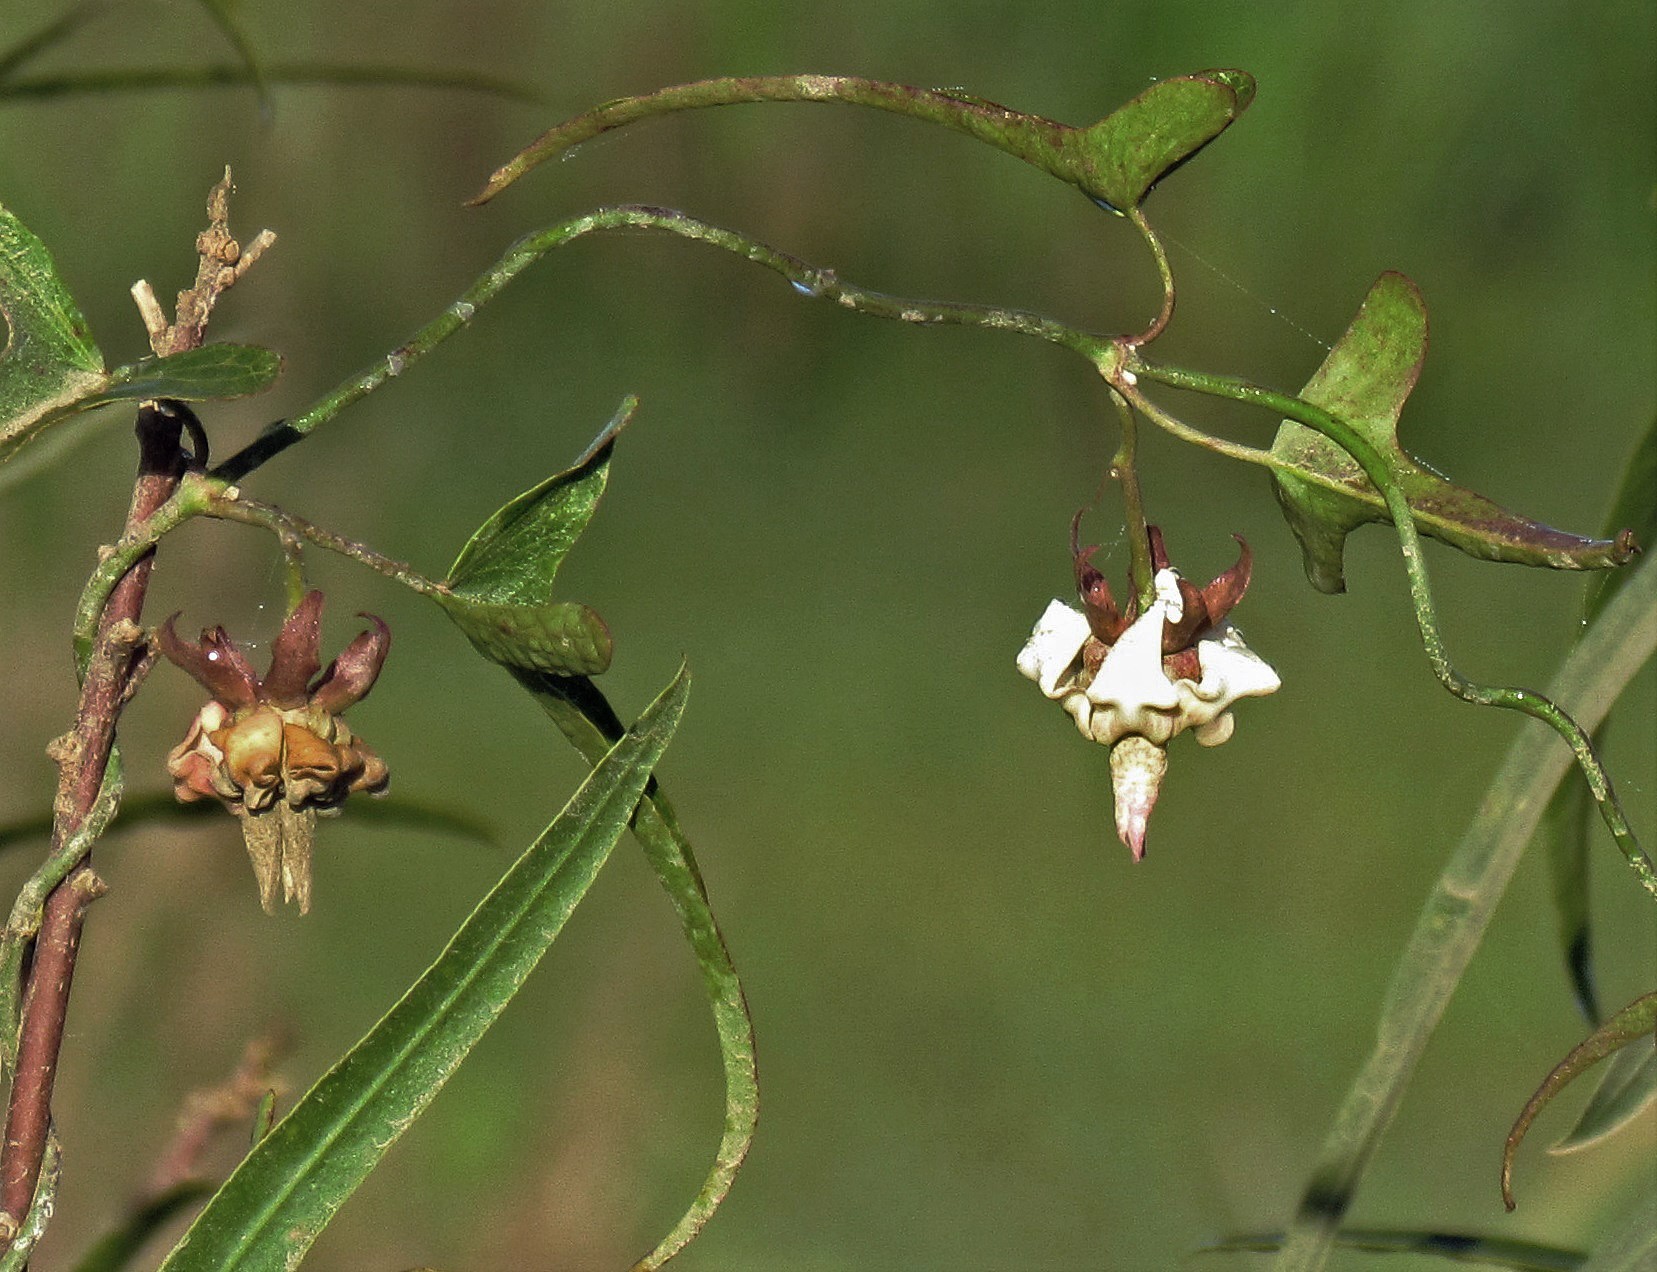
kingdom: Plantae
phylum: Tracheophyta
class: Magnoliopsida
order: Gentianales
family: Apocynaceae
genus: Araujia
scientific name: Araujia angustifolia
